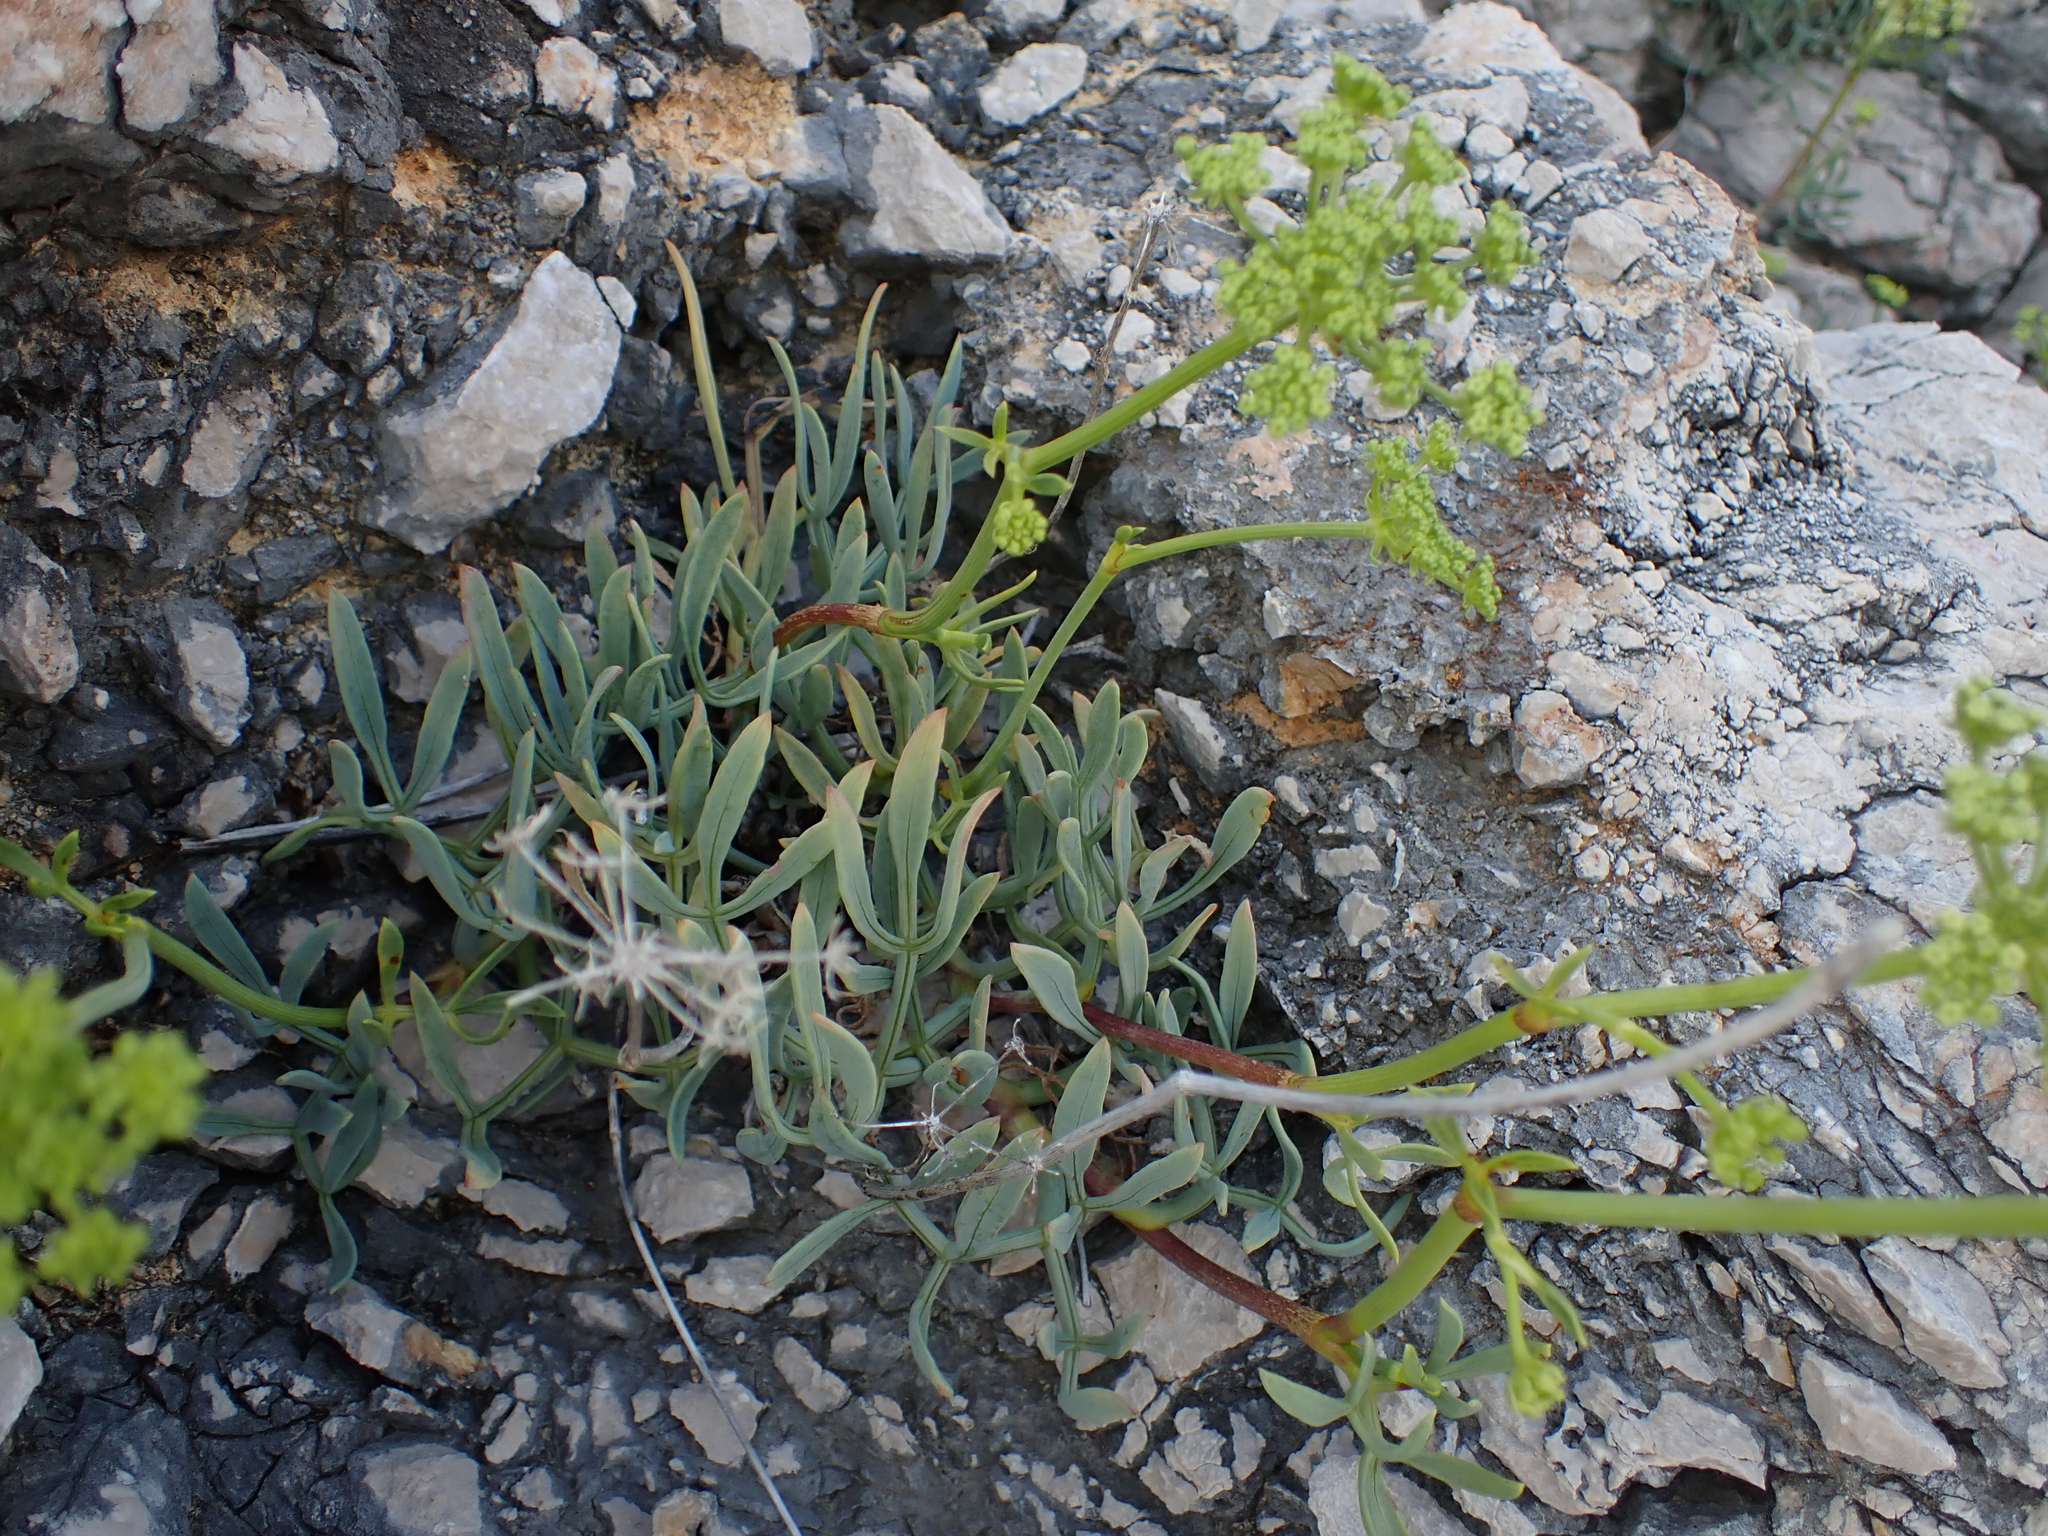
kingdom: Plantae
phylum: Tracheophyta
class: Magnoliopsida
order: Apiales
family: Apiaceae
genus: Crithmum
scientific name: Crithmum maritimum
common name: Rock samphire
